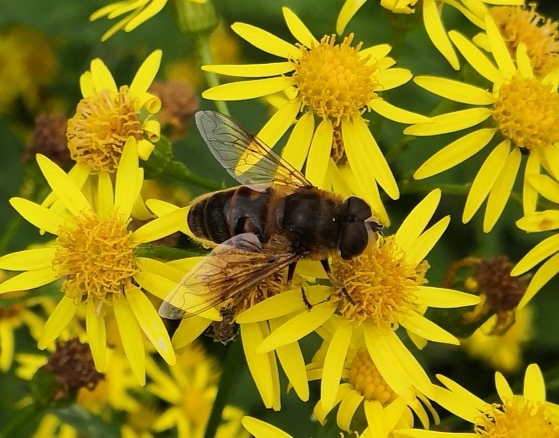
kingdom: Animalia
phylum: Arthropoda
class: Insecta
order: Diptera
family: Syrphidae
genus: Eristalis
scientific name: Eristalis tenax
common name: Drone fly
